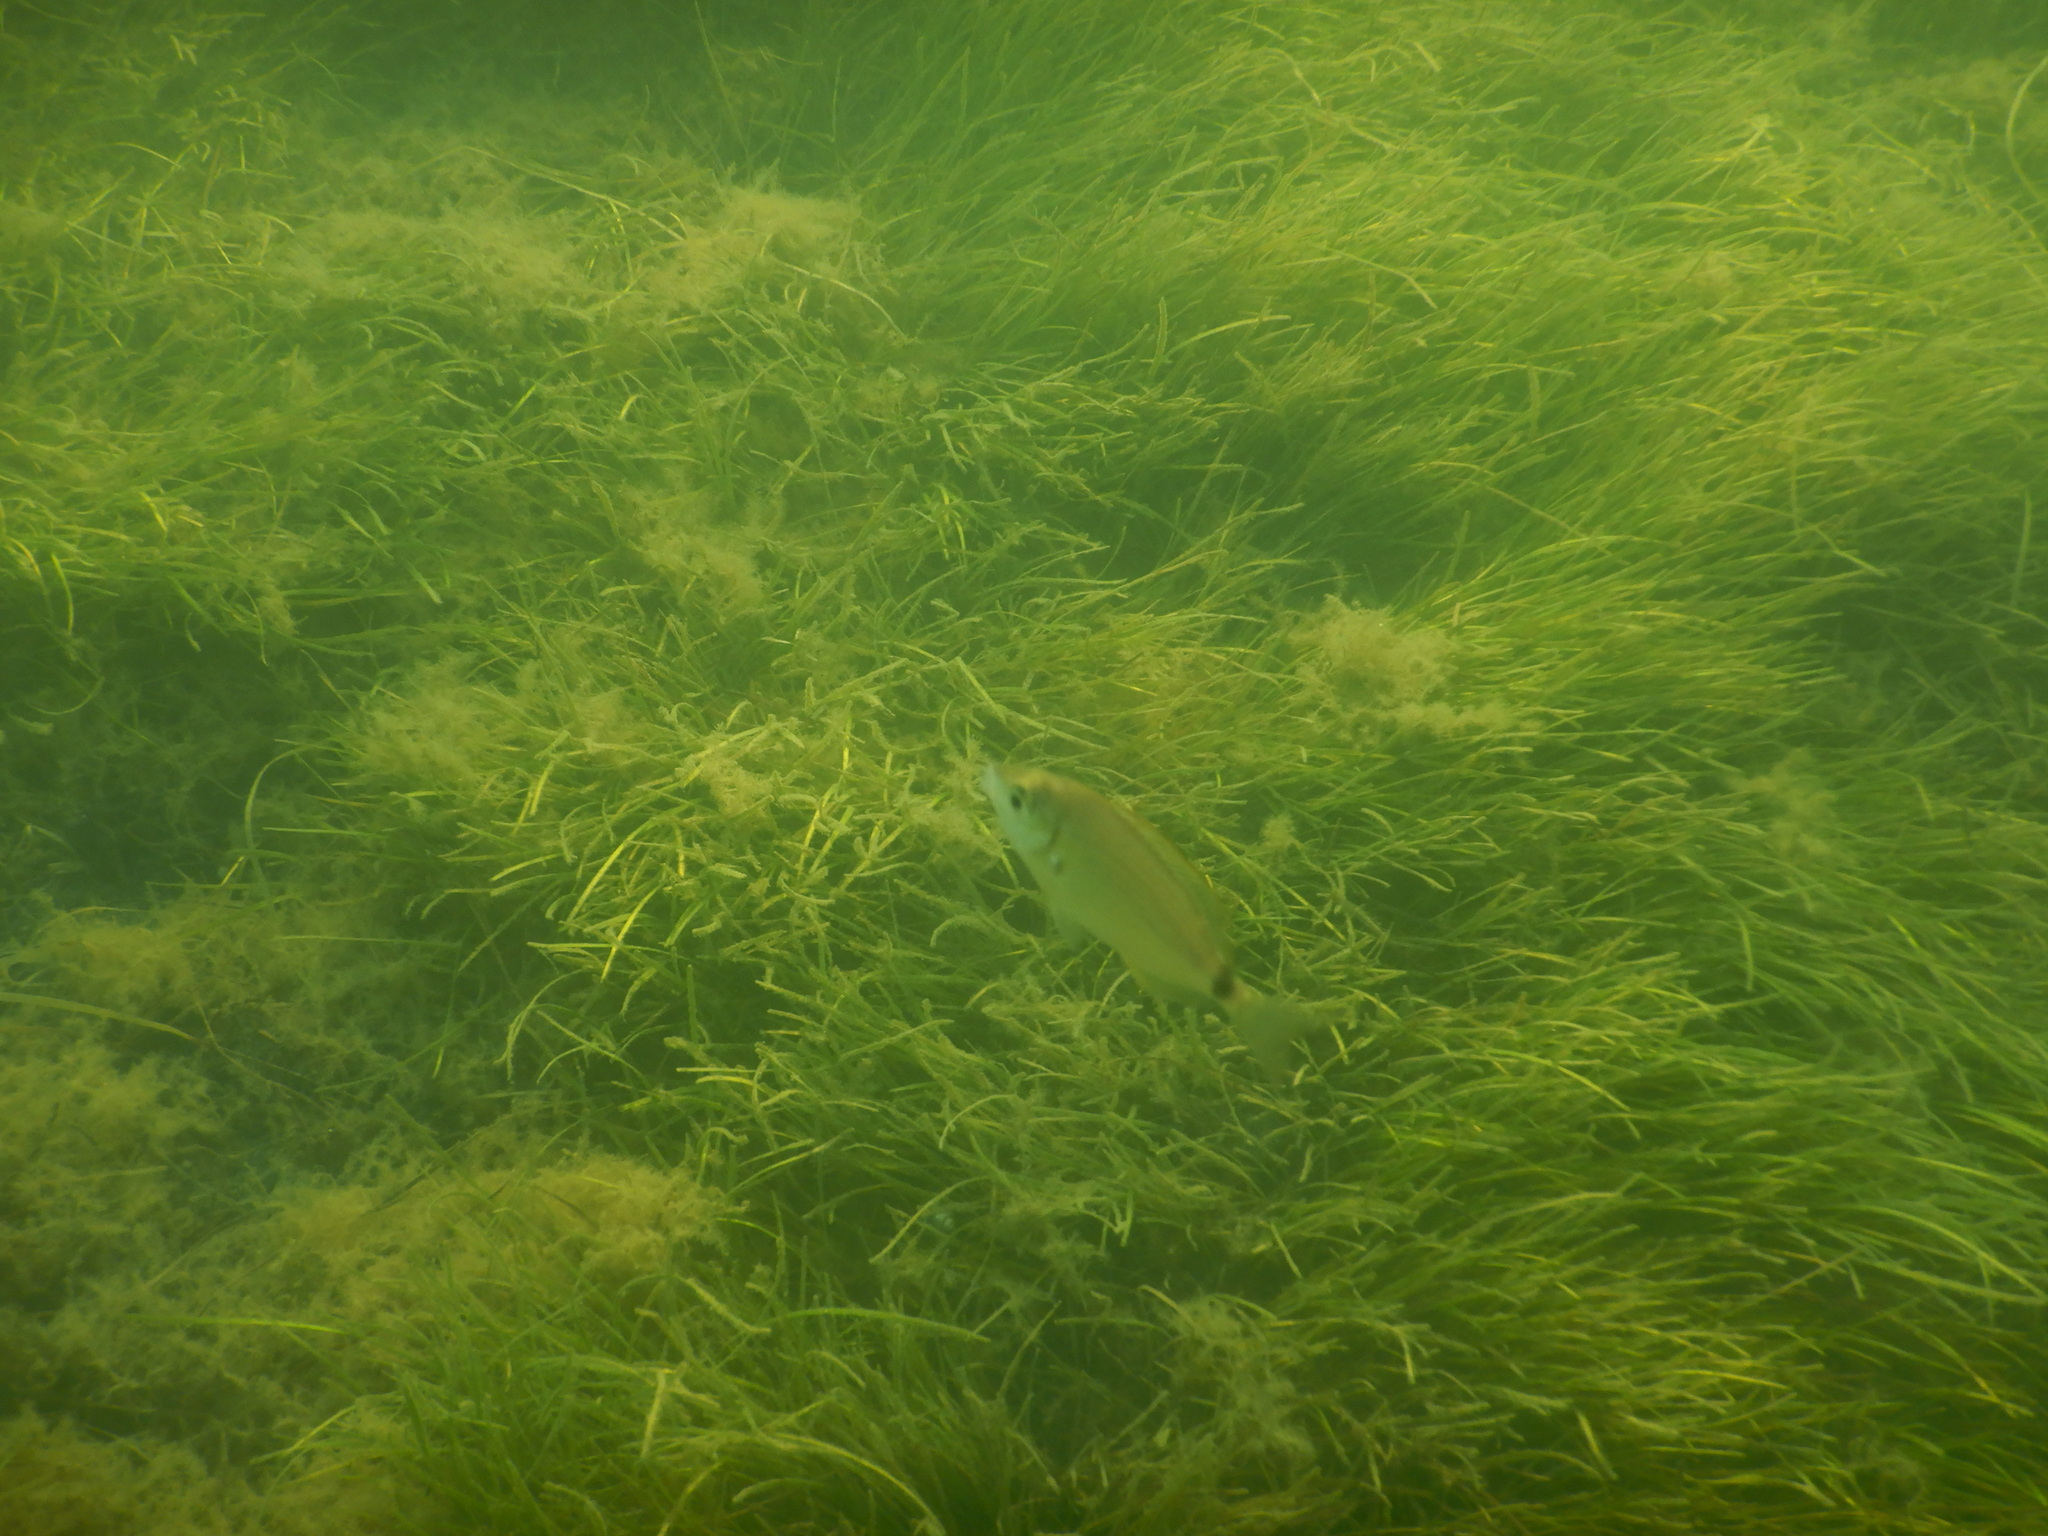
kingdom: Animalia
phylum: Chordata
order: Perciformes
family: Sparidae
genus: Diplodus
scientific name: Diplodus bellottii
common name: Senegal seabream
